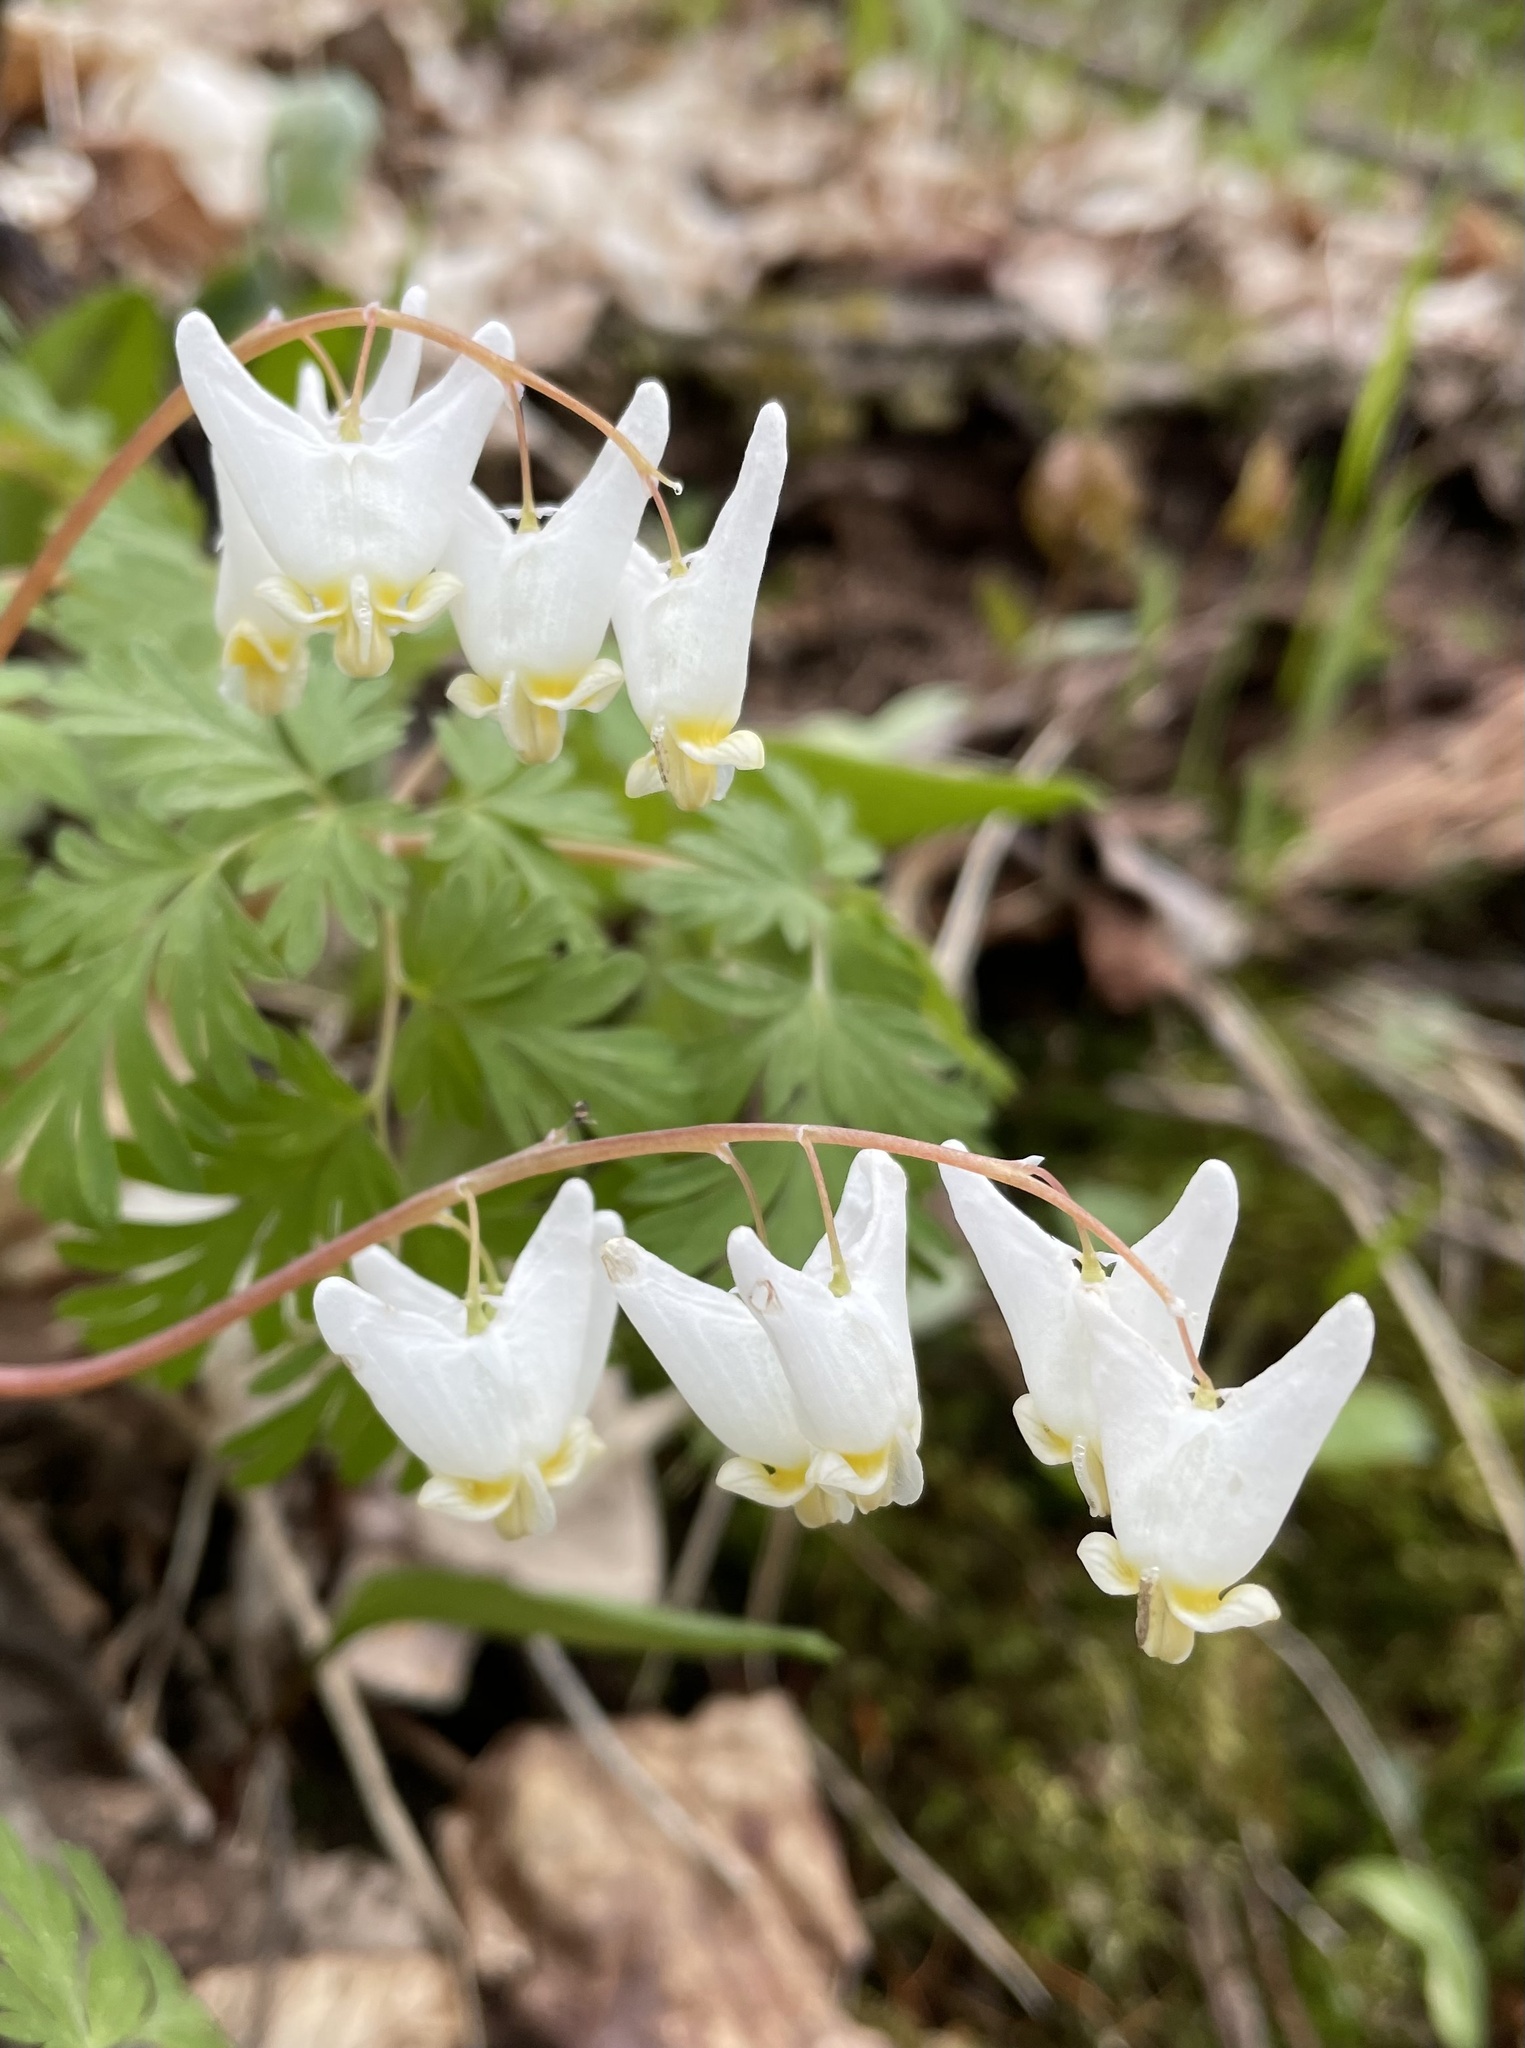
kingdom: Plantae
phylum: Tracheophyta
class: Magnoliopsida
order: Ranunculales
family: Papaveraceae
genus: Dicentra
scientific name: Dicentra cucullaria
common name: Dutchman's breeches
